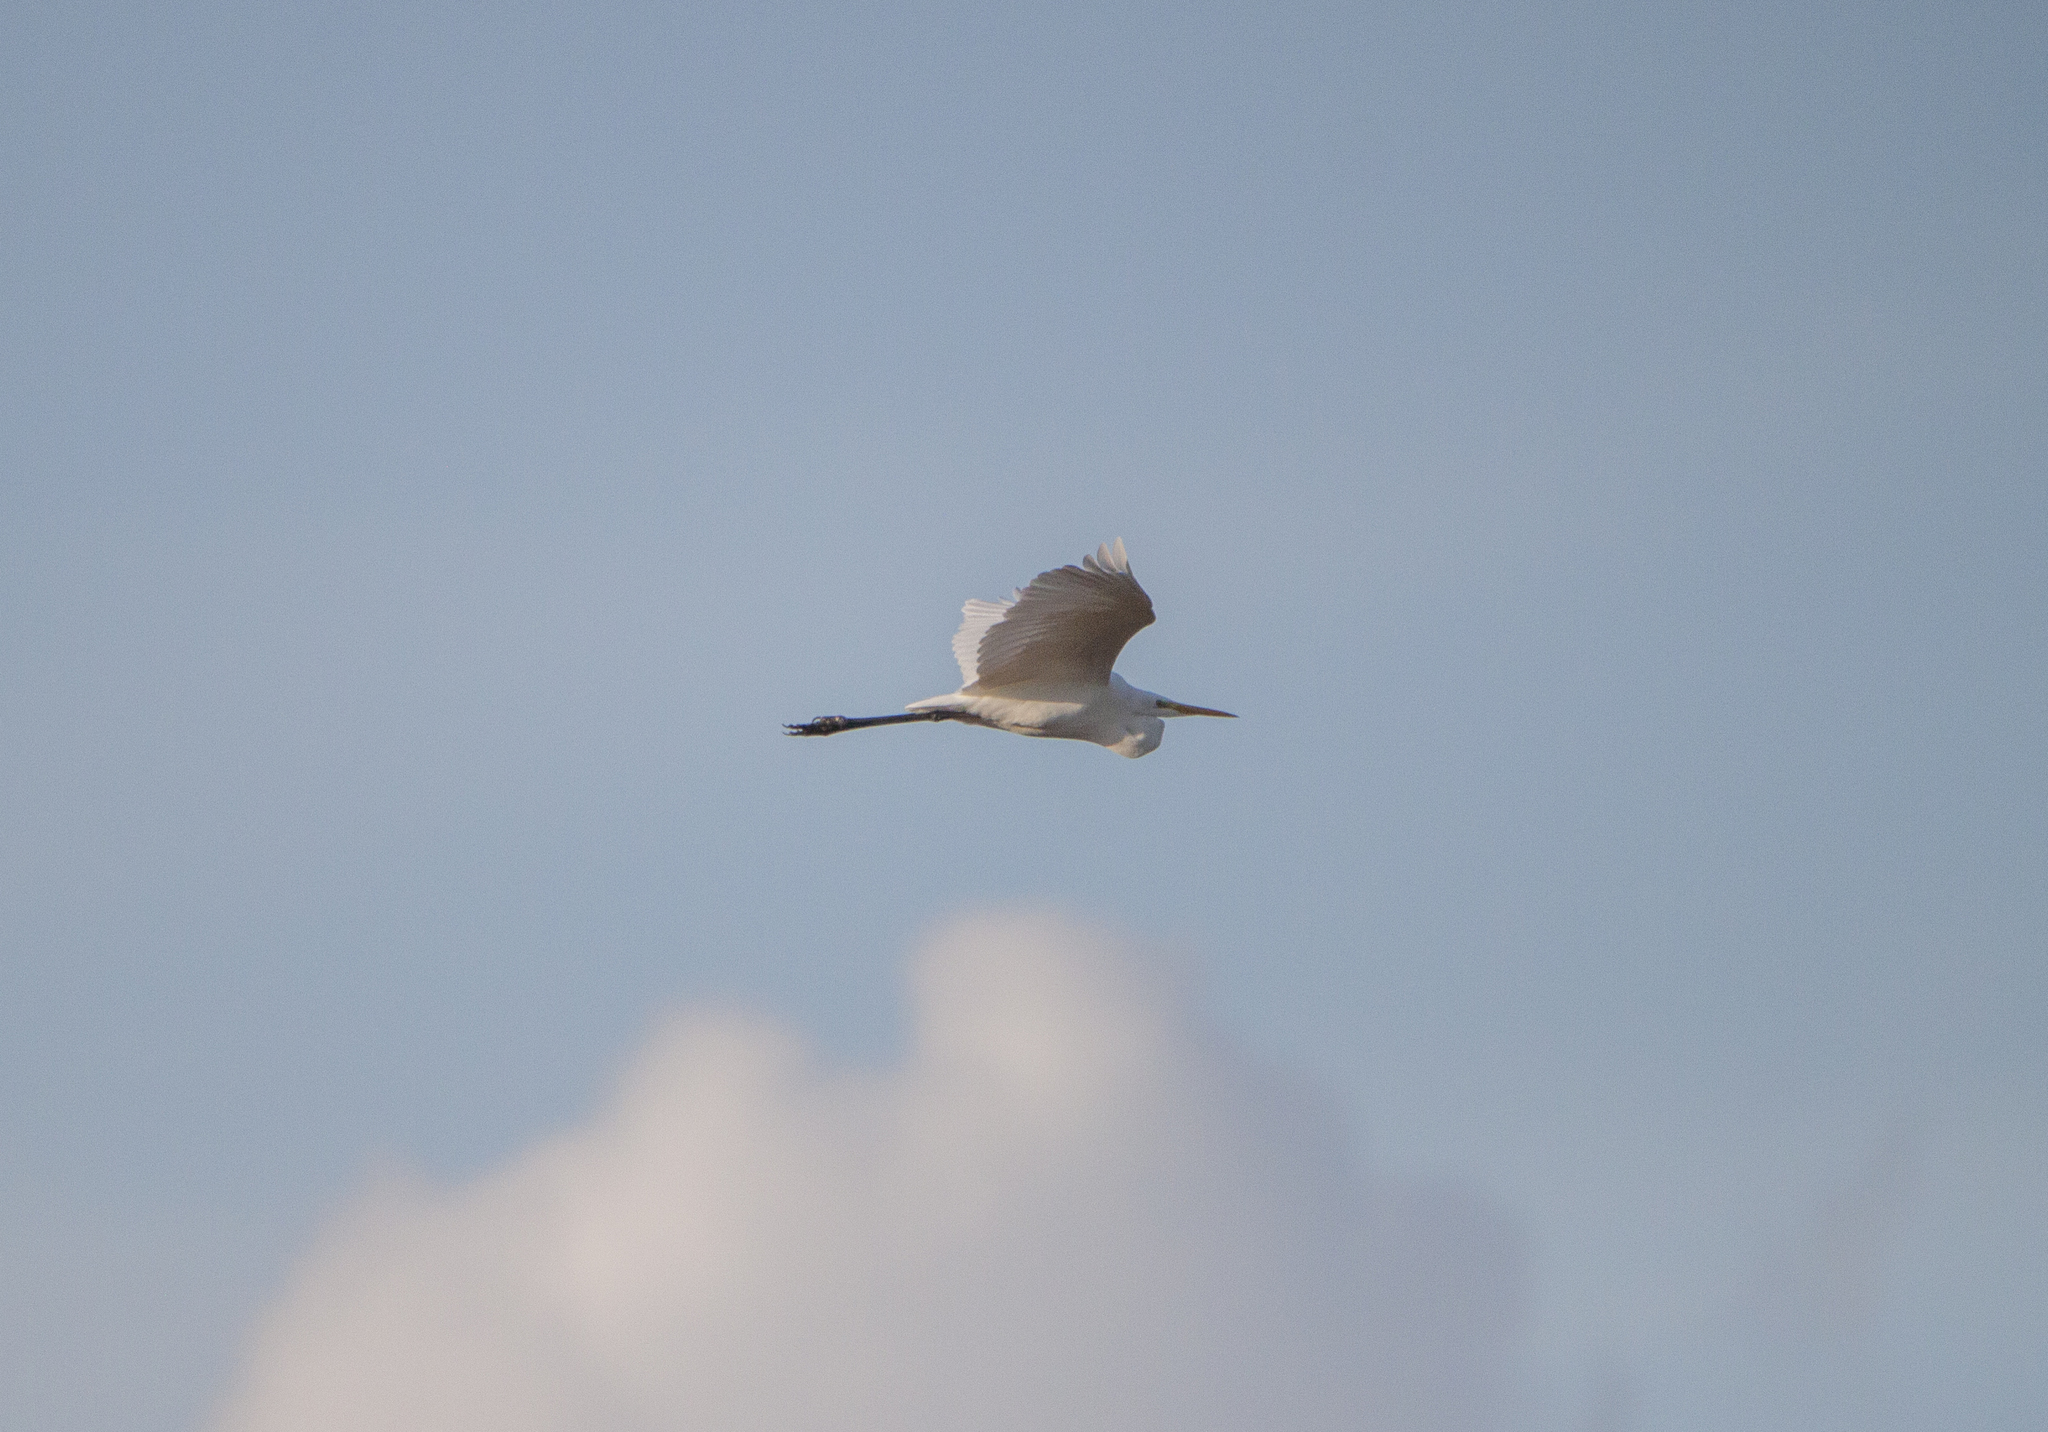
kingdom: Animalia
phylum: Chordata
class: Aves
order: Pelecaniformes
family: Ardeidae
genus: Ardea
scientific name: Ardea alba
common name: Great egret
